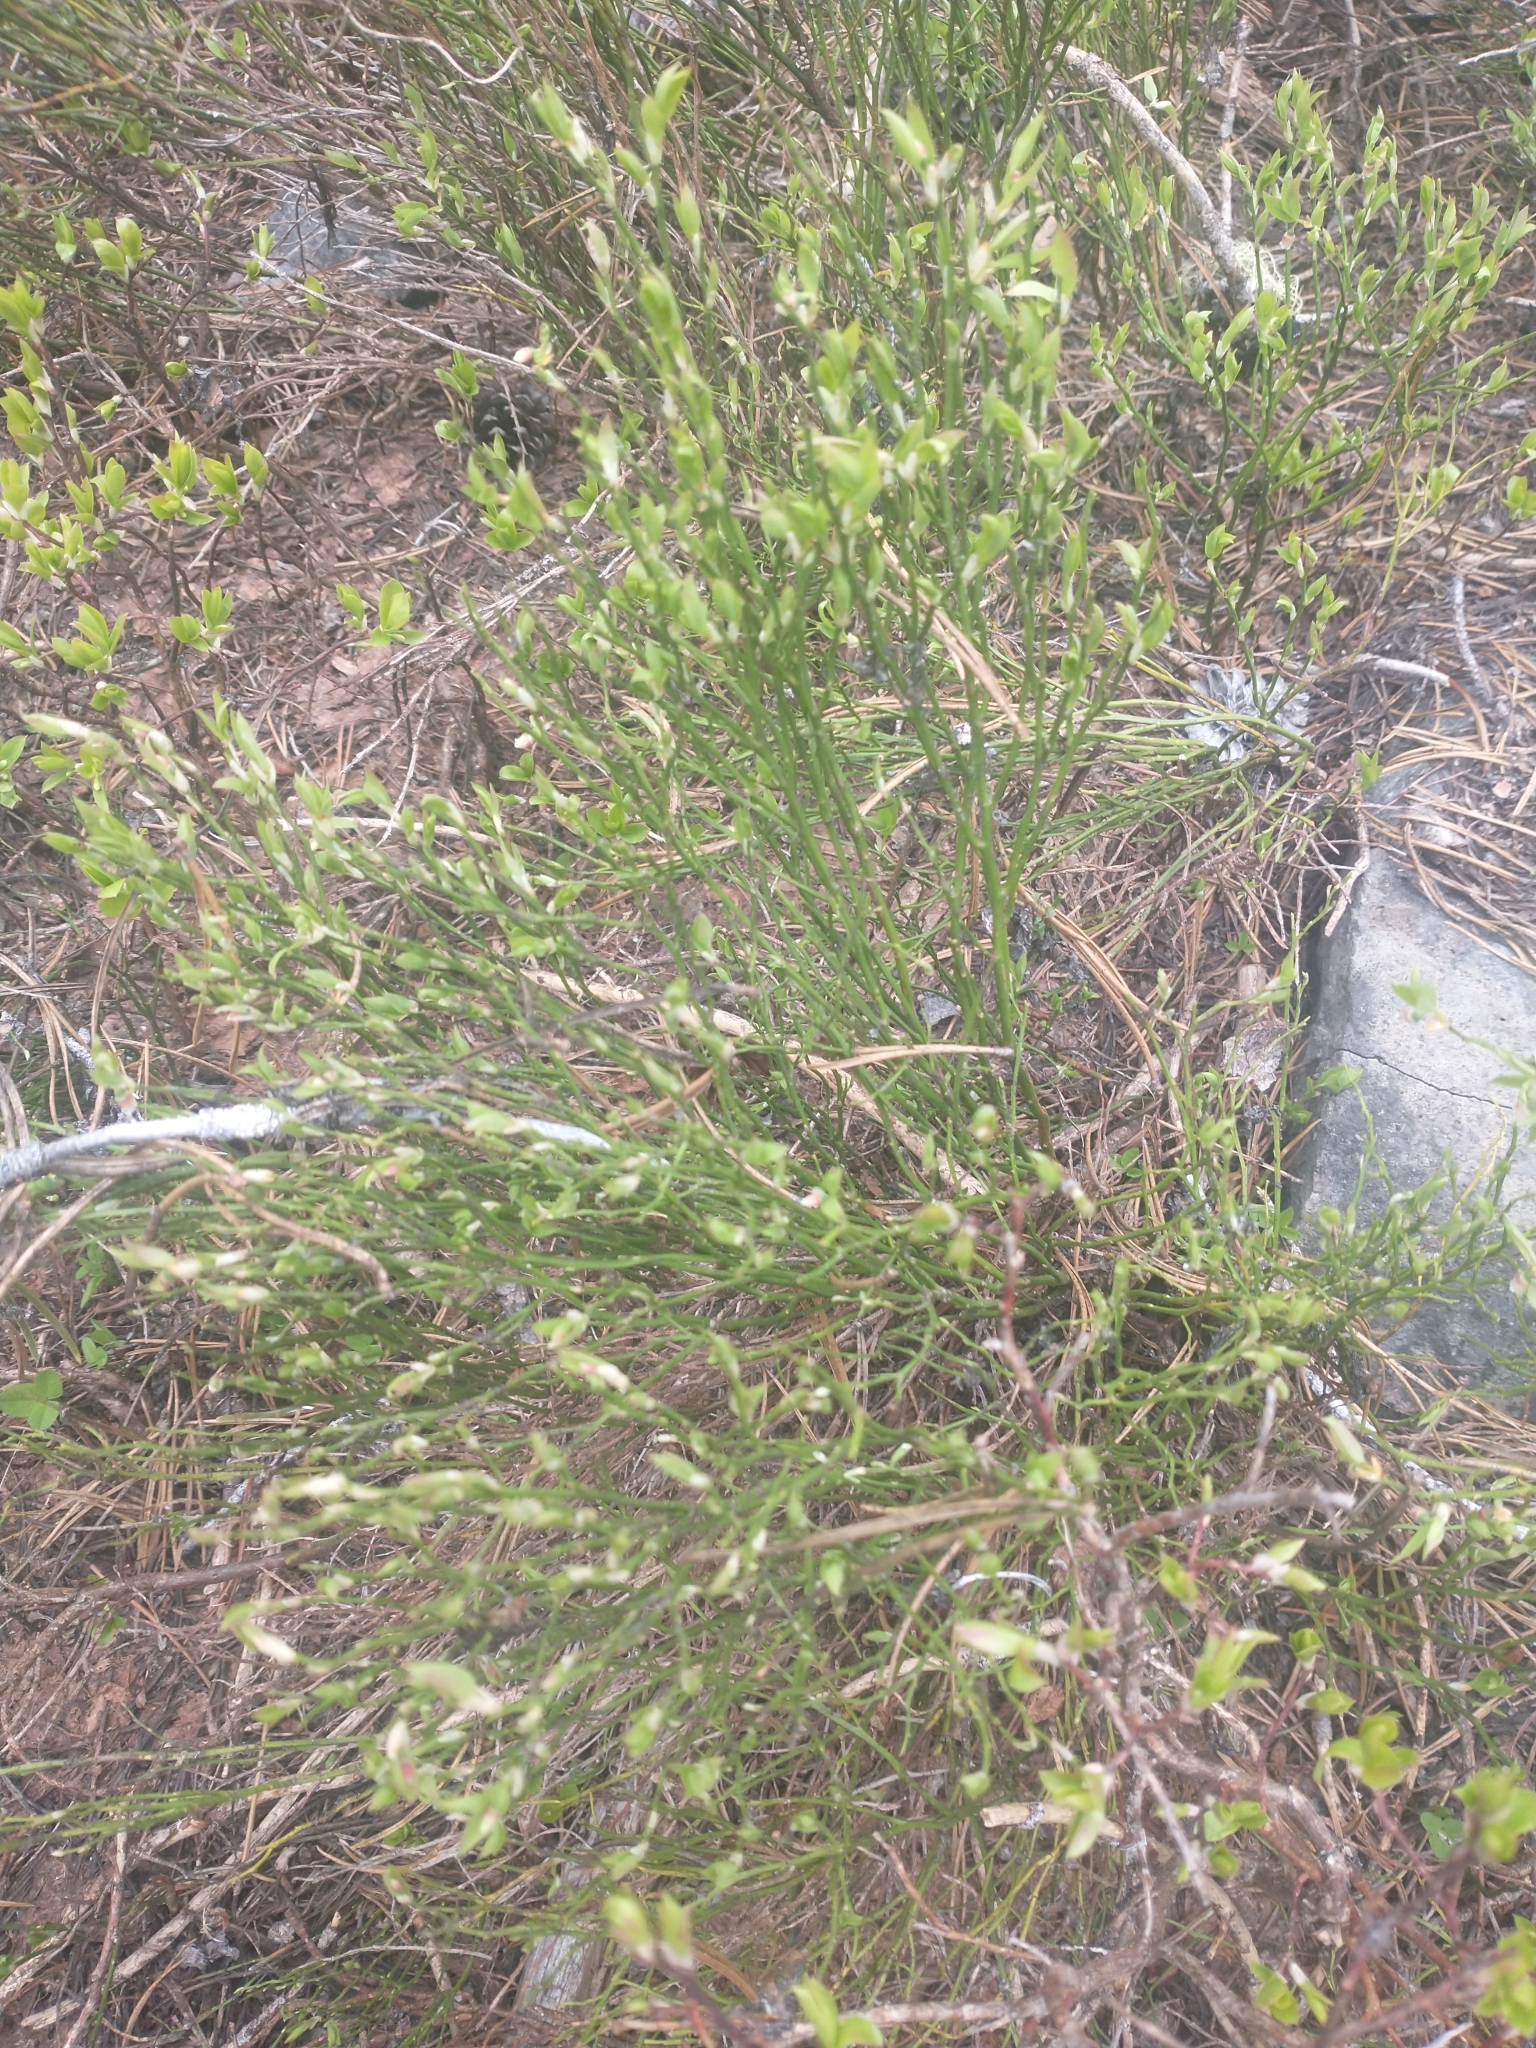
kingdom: Plantae
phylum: Tracheophyta
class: Magnoliopsida
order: Ericales
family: Ericaceae
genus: Vaccinium
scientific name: Vaccinium scoparium
